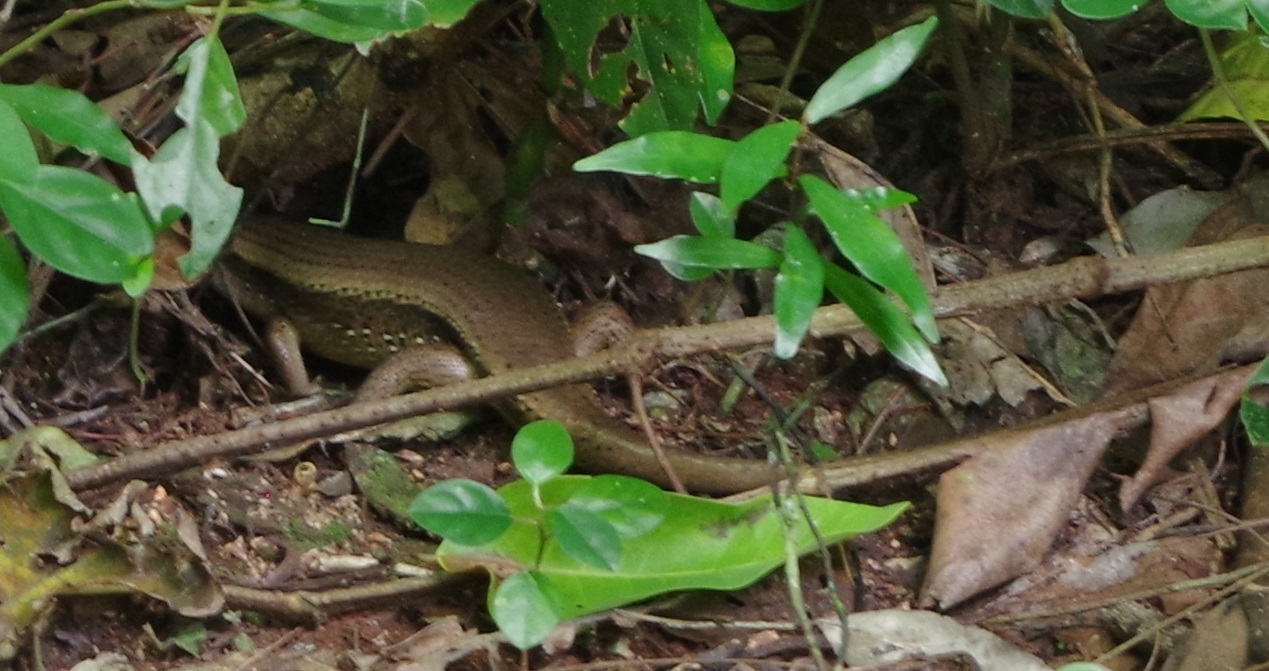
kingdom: Animalia
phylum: Chordata
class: Squamata
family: Scincidae
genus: Eutropis
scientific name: Eutropis multifasciata
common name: Common mabuya
